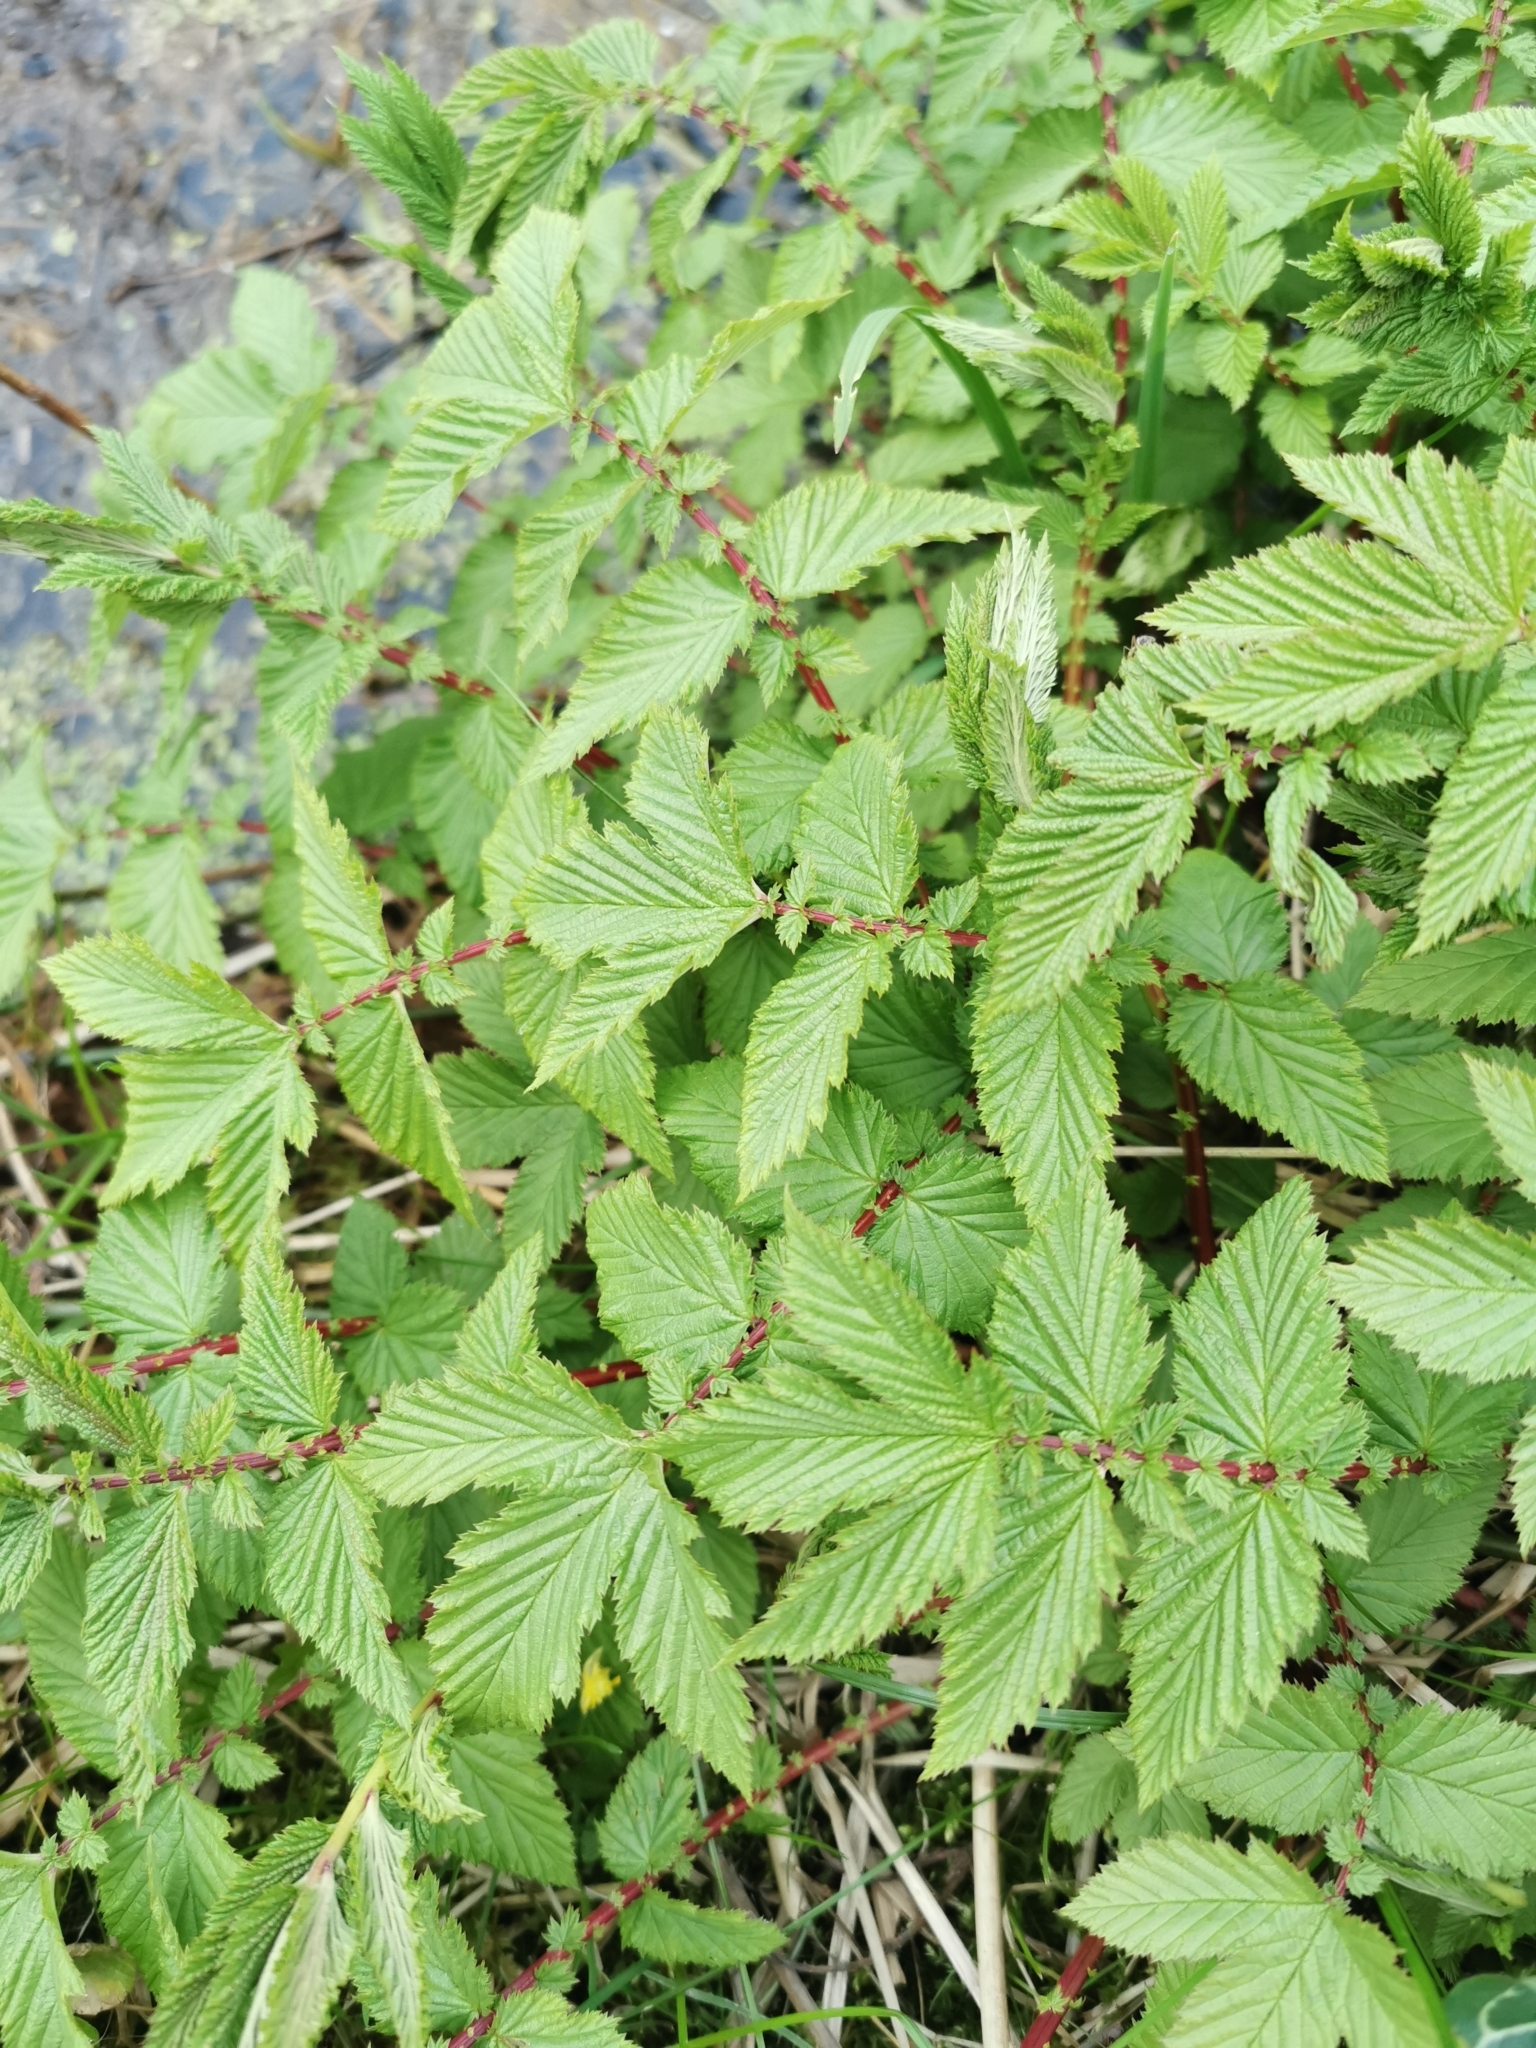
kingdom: Plantae
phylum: Tracheophyta
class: Magnoliopsida
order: Rosales
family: Rosaceae
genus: Filipendula
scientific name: Filipendula ulmaria
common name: Meadowsweet
